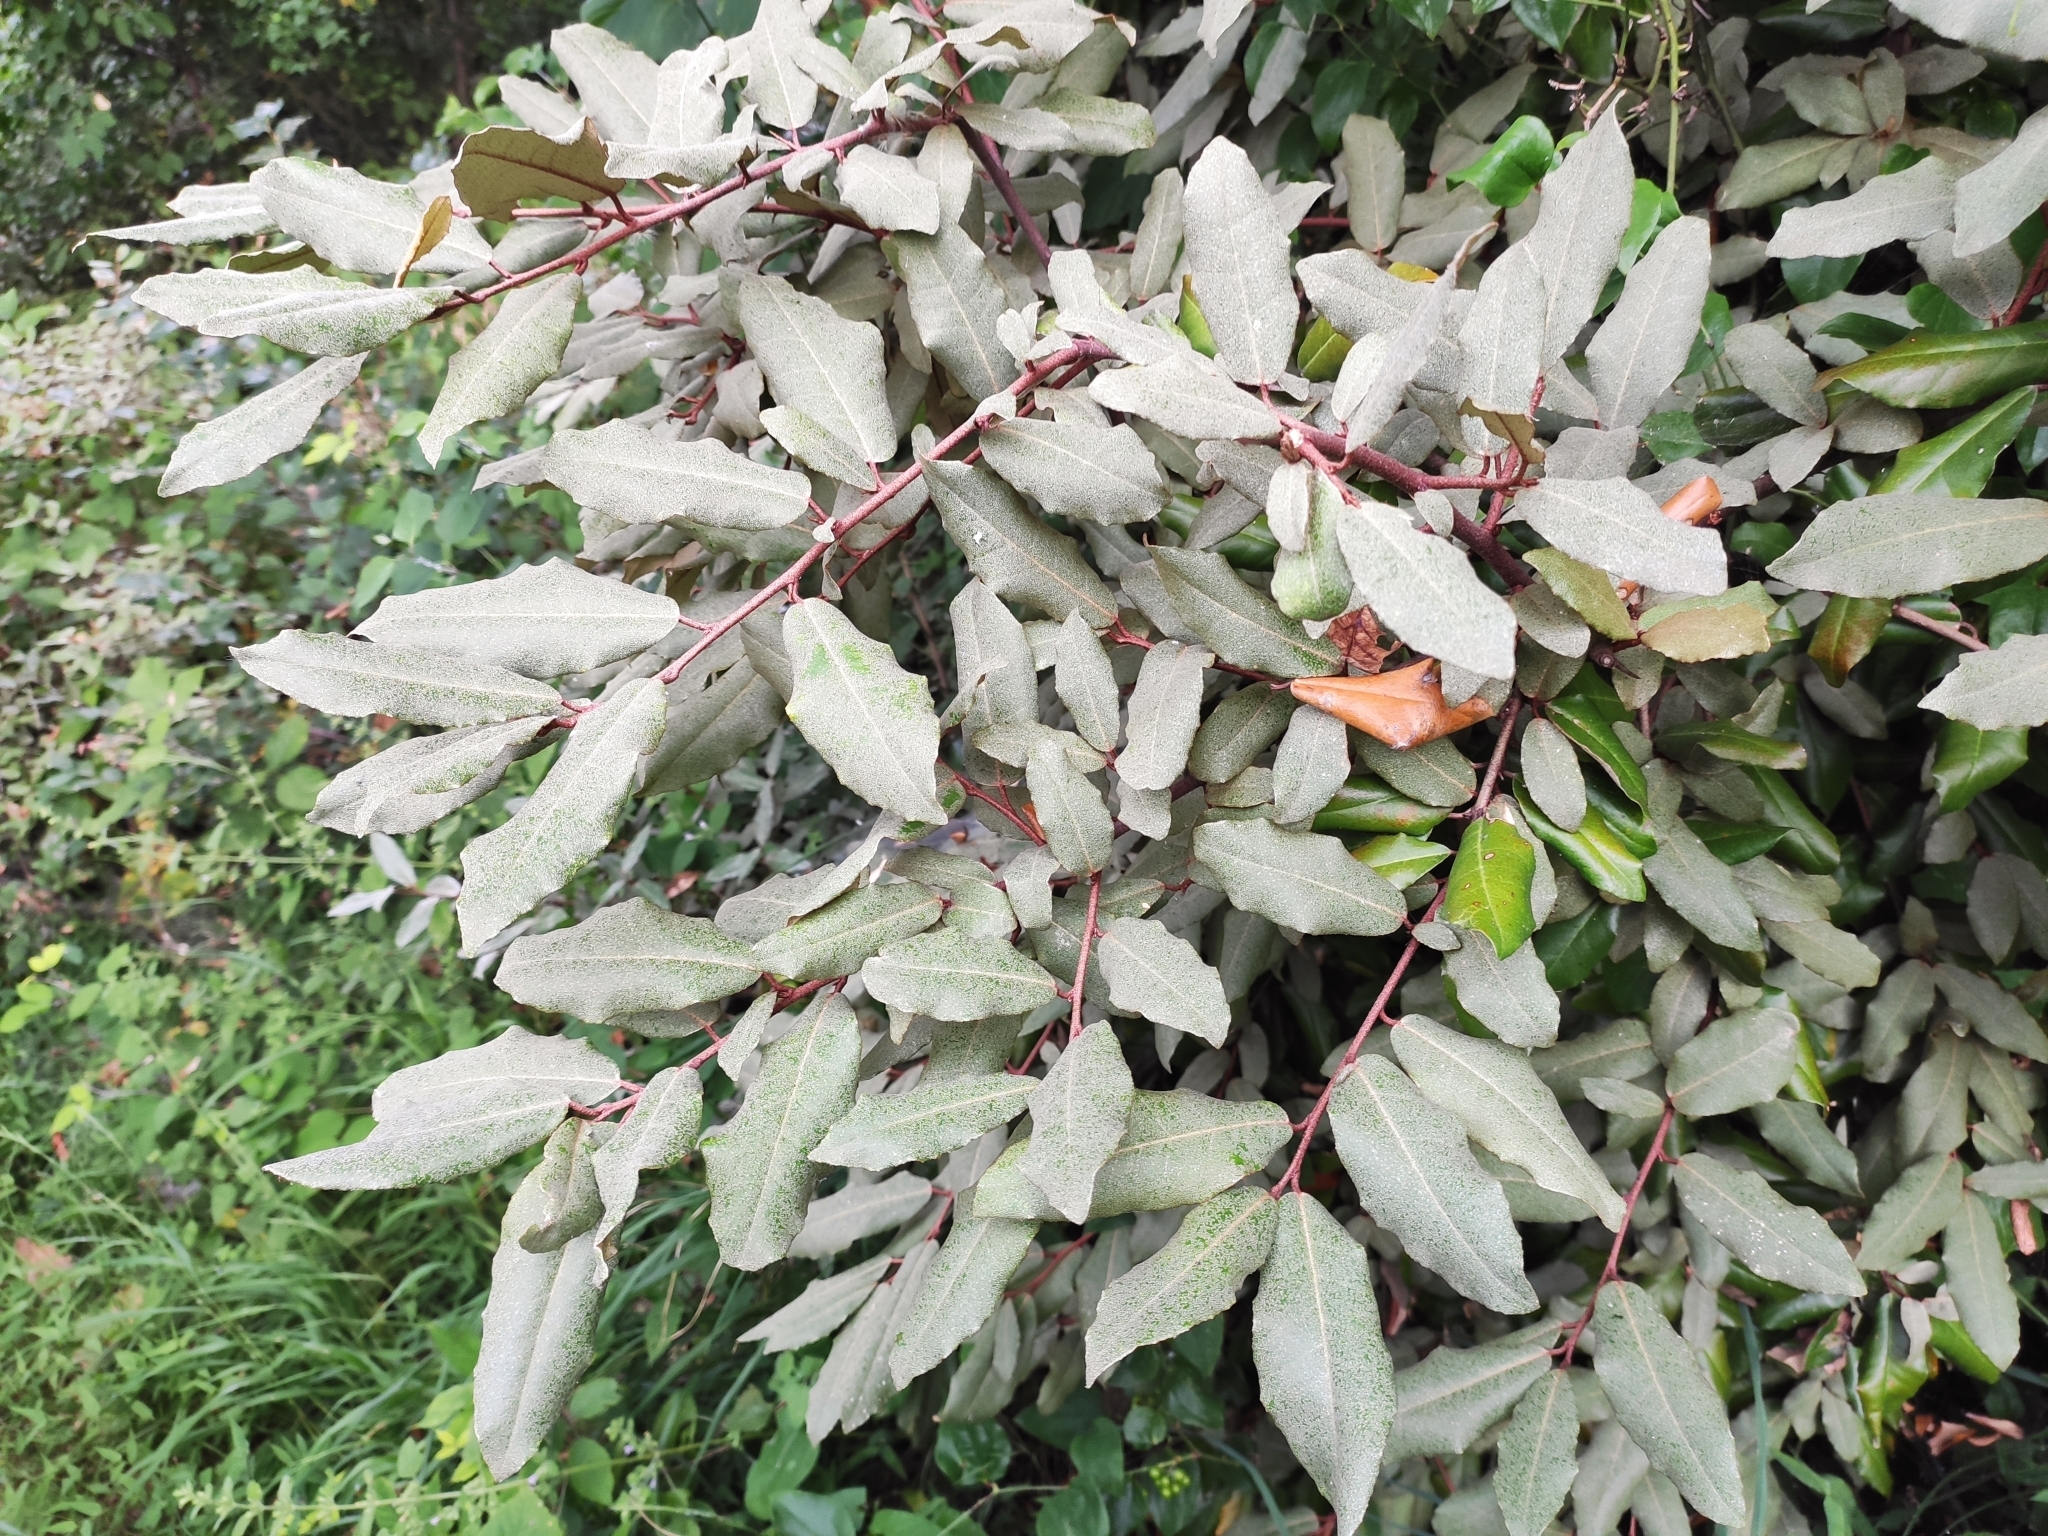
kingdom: Plantae
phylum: Tracheophyta
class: Magnoliopsida
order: Rosales
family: Elaeagnaceae
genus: Elaeagnus
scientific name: Elaeagnus pungens
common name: Spiny oleaster
